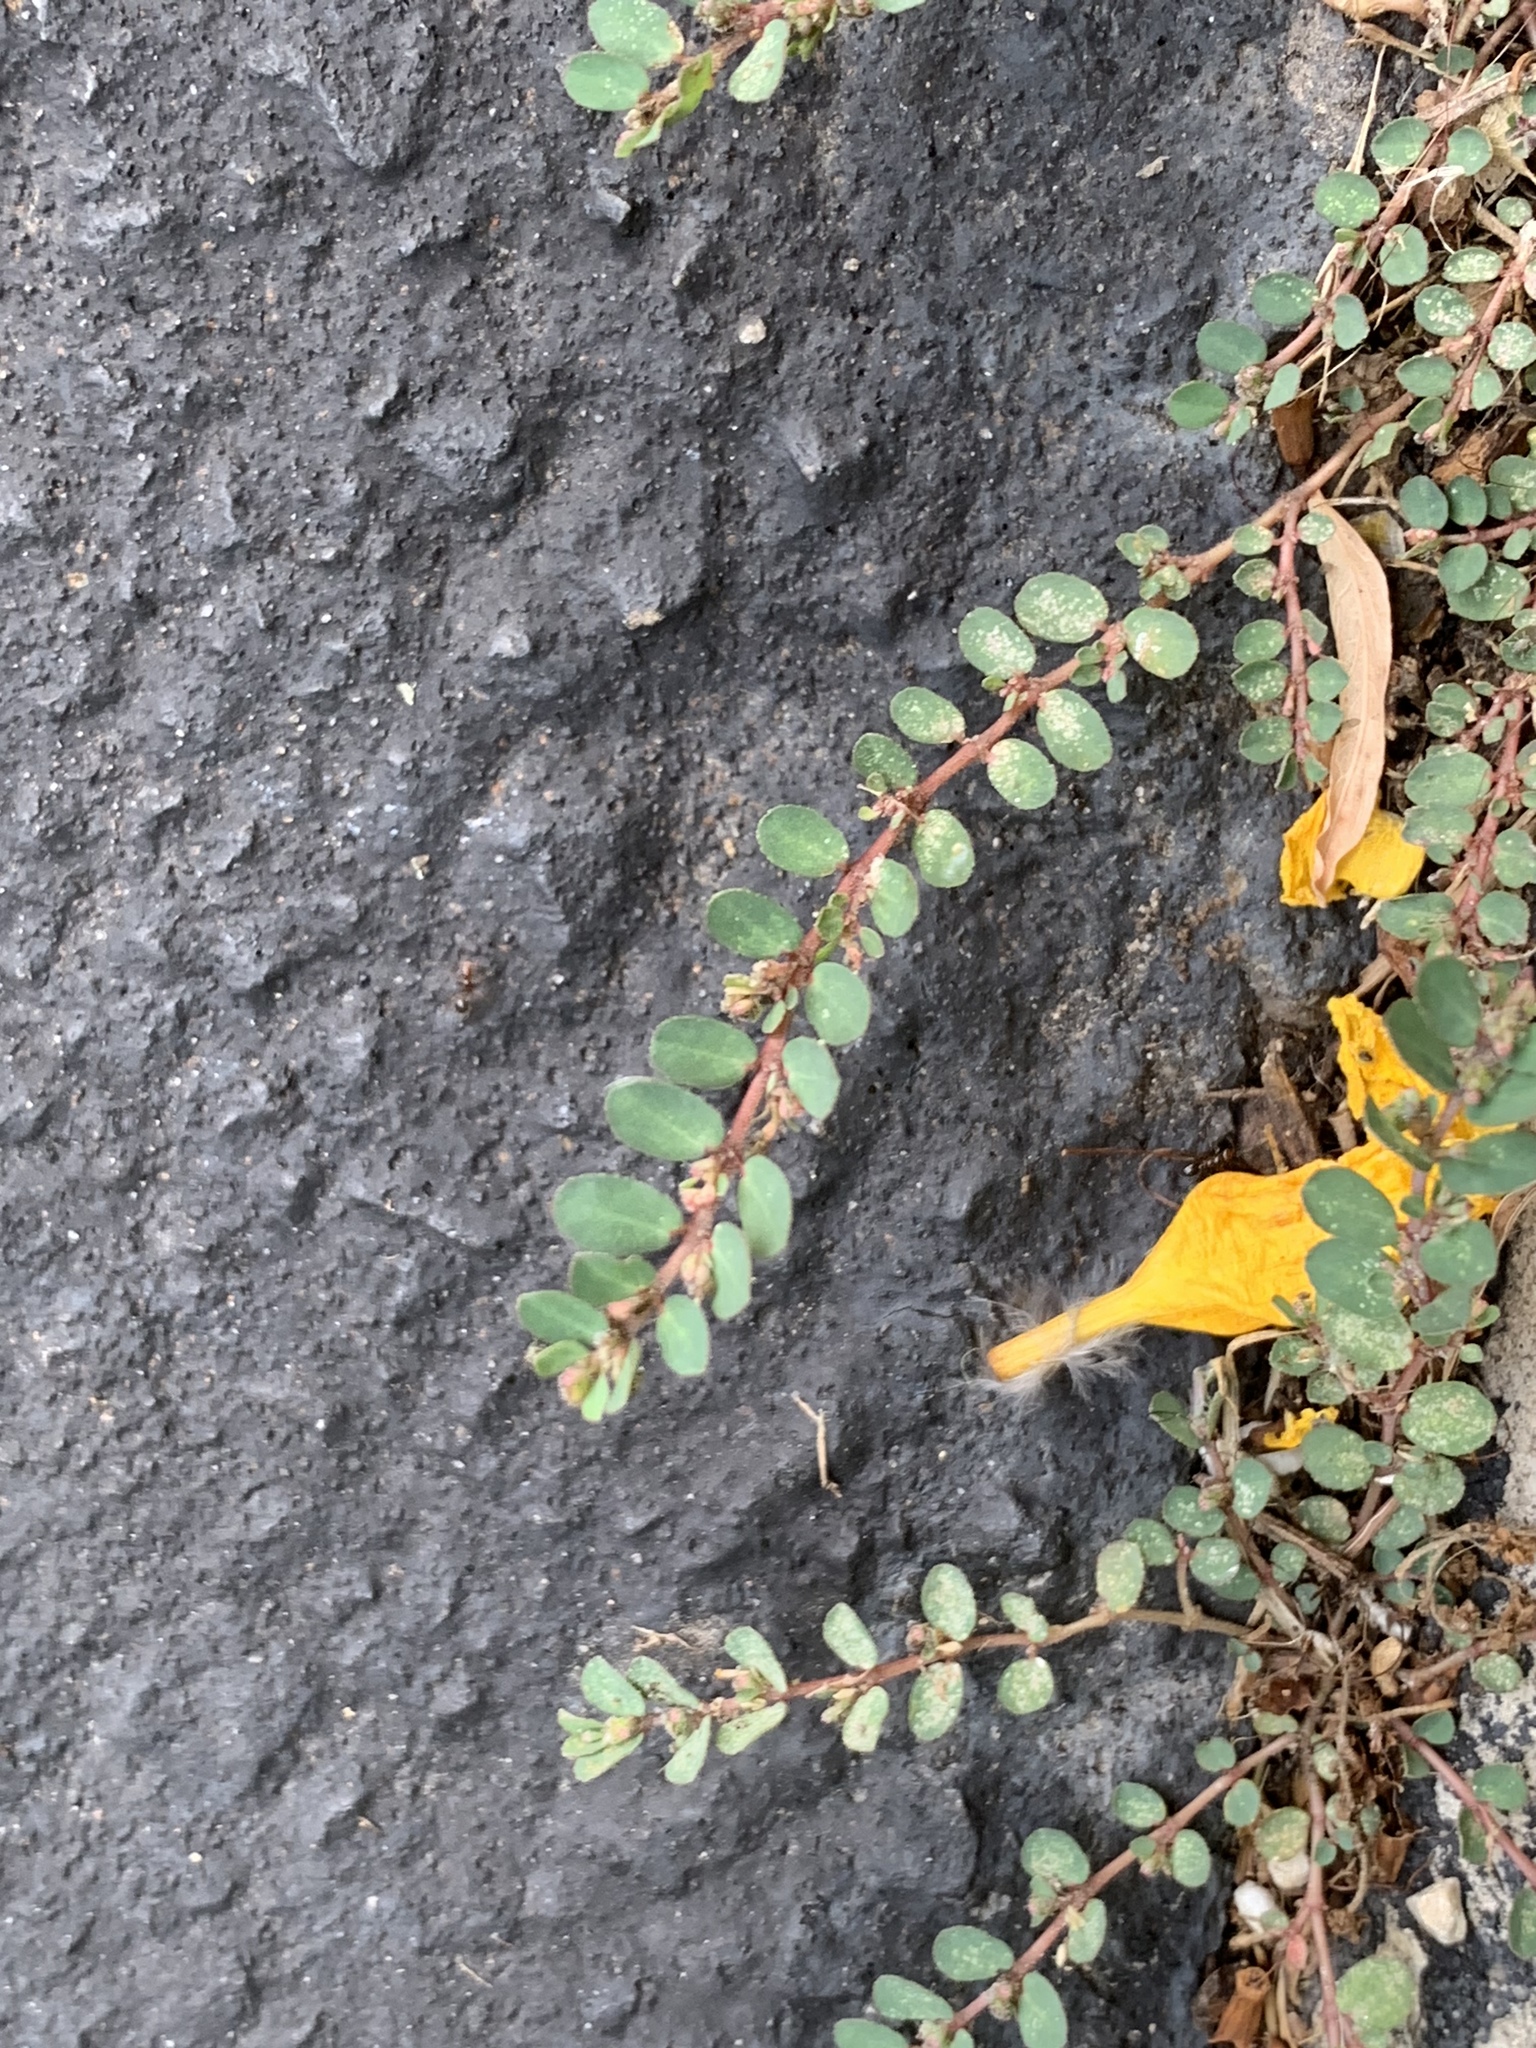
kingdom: Plantae
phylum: Tracheophyta
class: Magnoliopsida
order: Malpighiales
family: Euphorbiaceae
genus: Euphorbia
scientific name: Euphorbia prostrata
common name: Prostrate sandmat
